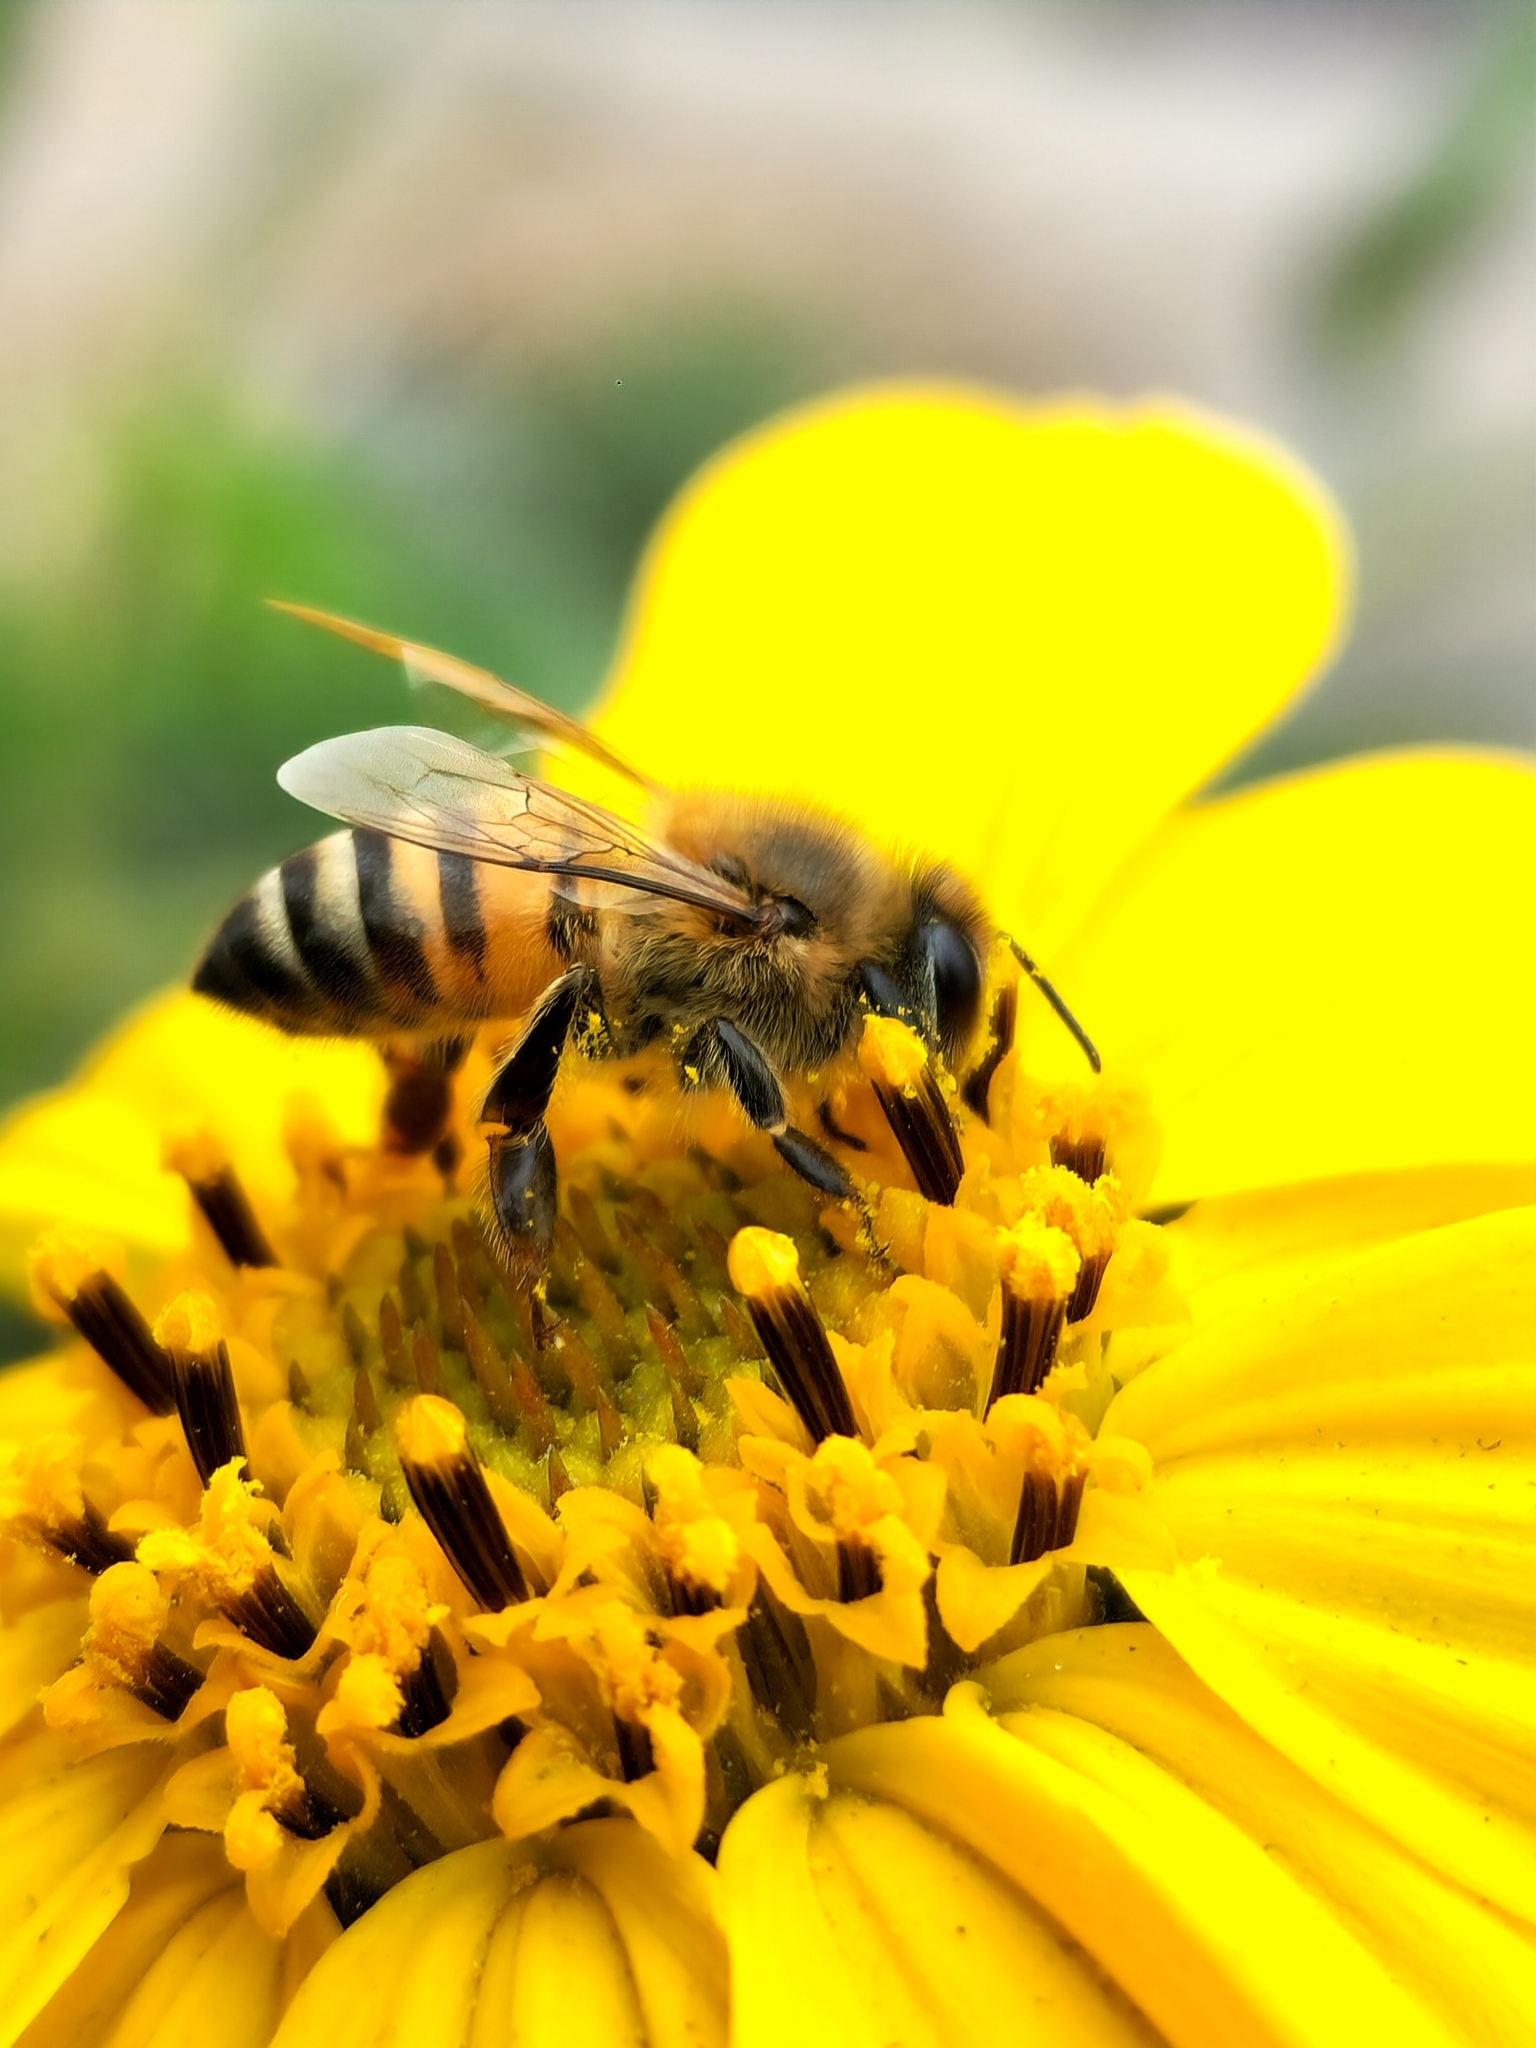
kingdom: Animalia
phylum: Arthropoda
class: Insecta
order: Hymenoptera
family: Apidae
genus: Apis
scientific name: Apis mellifera
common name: Honey bee
